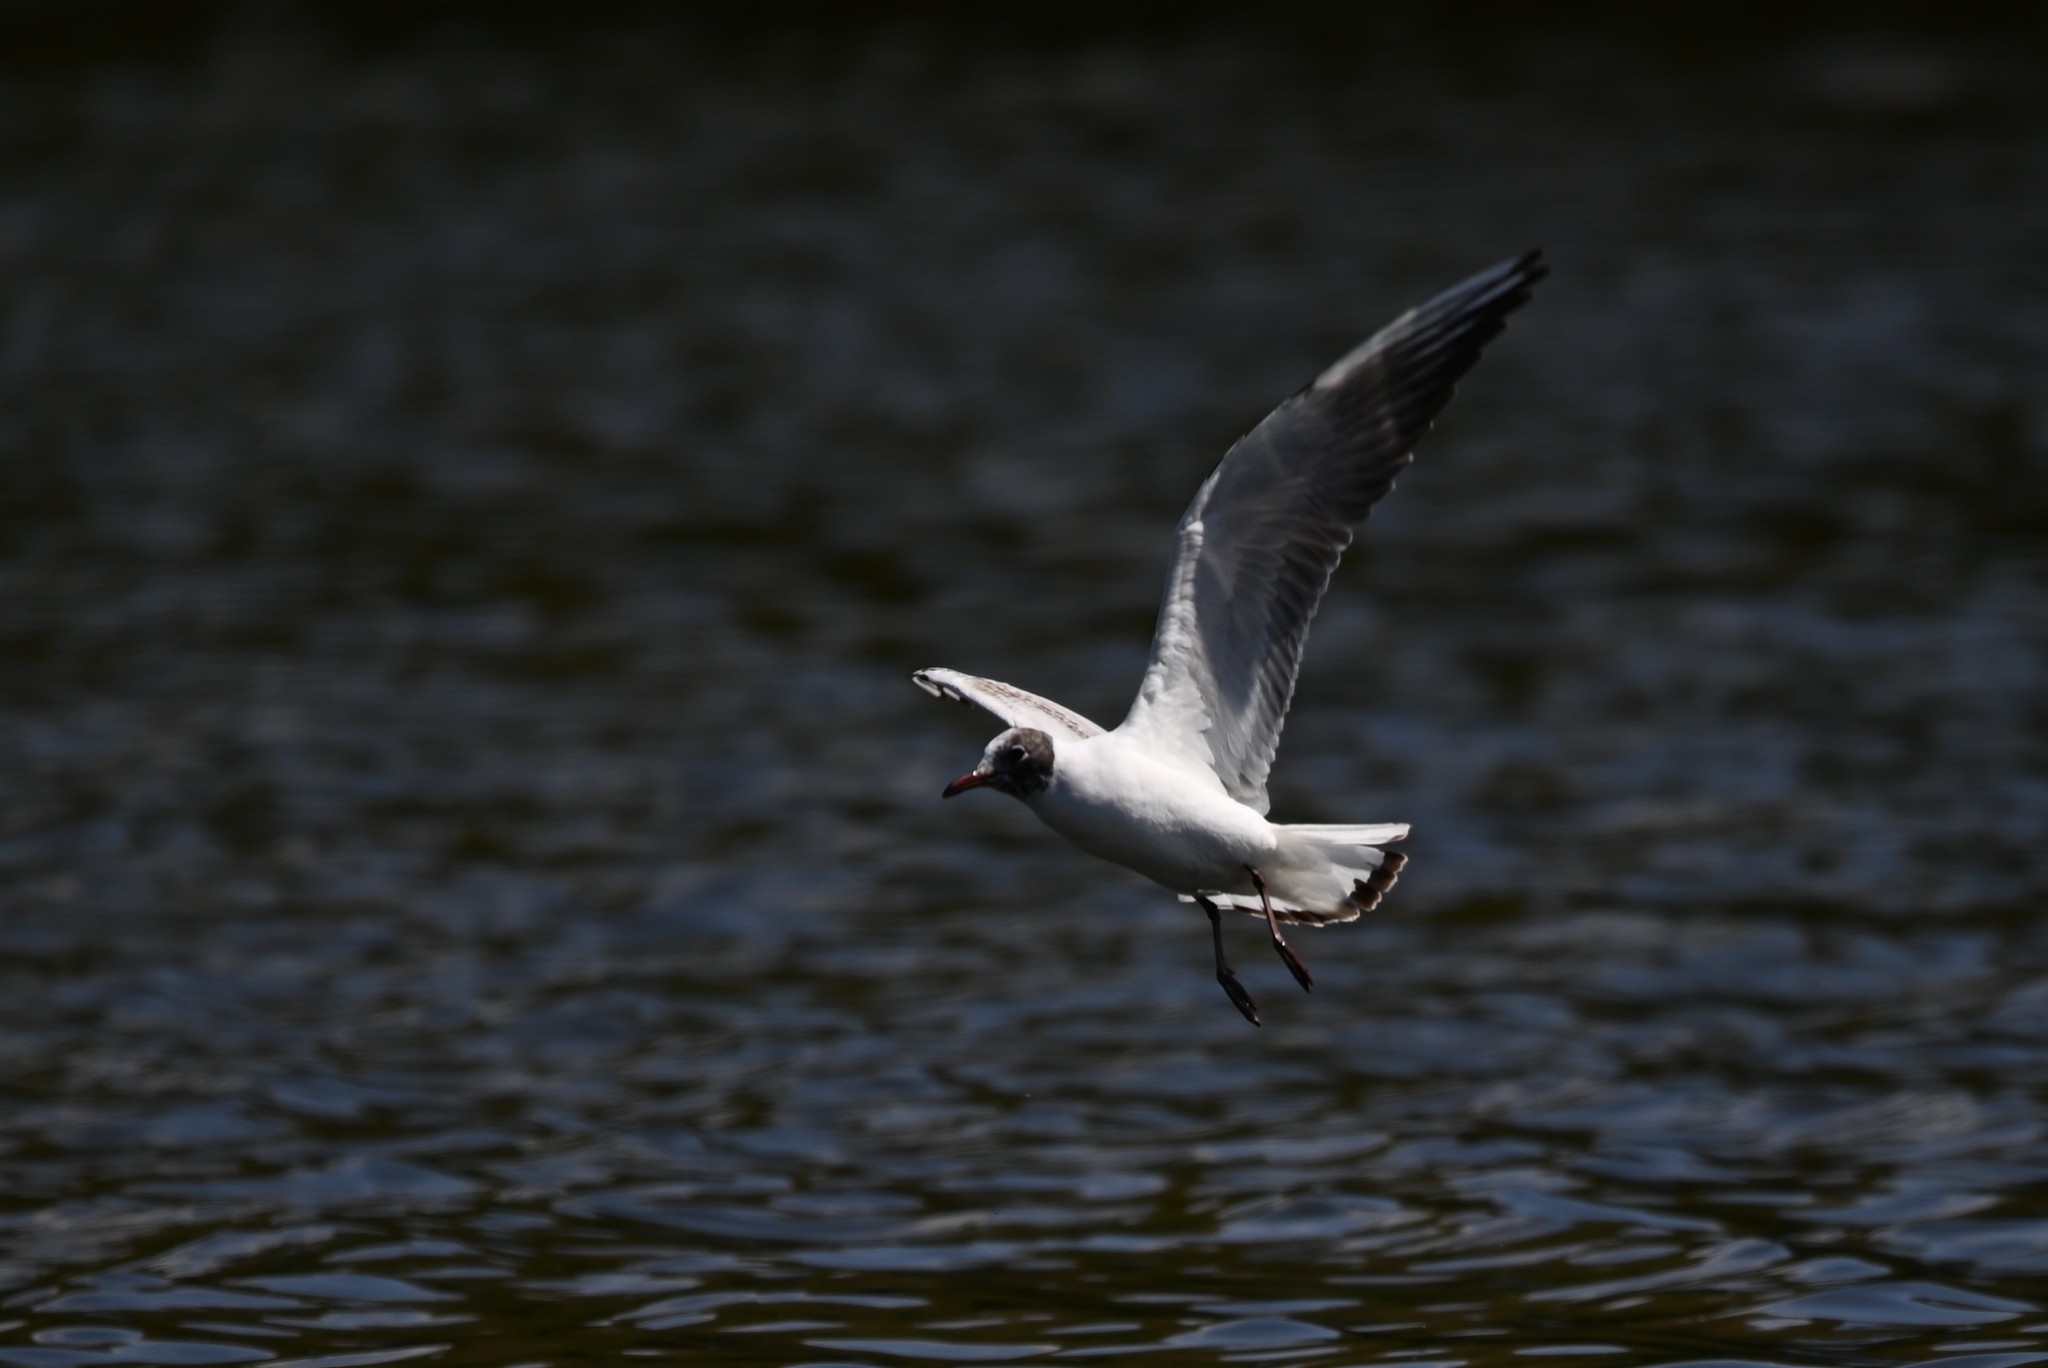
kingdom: Animalia
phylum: Chordata
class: Aves
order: Charadriiformes
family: Laridae
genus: Chroicocephalus
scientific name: Chroicocephalus ridibundus
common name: Black-headed gull
